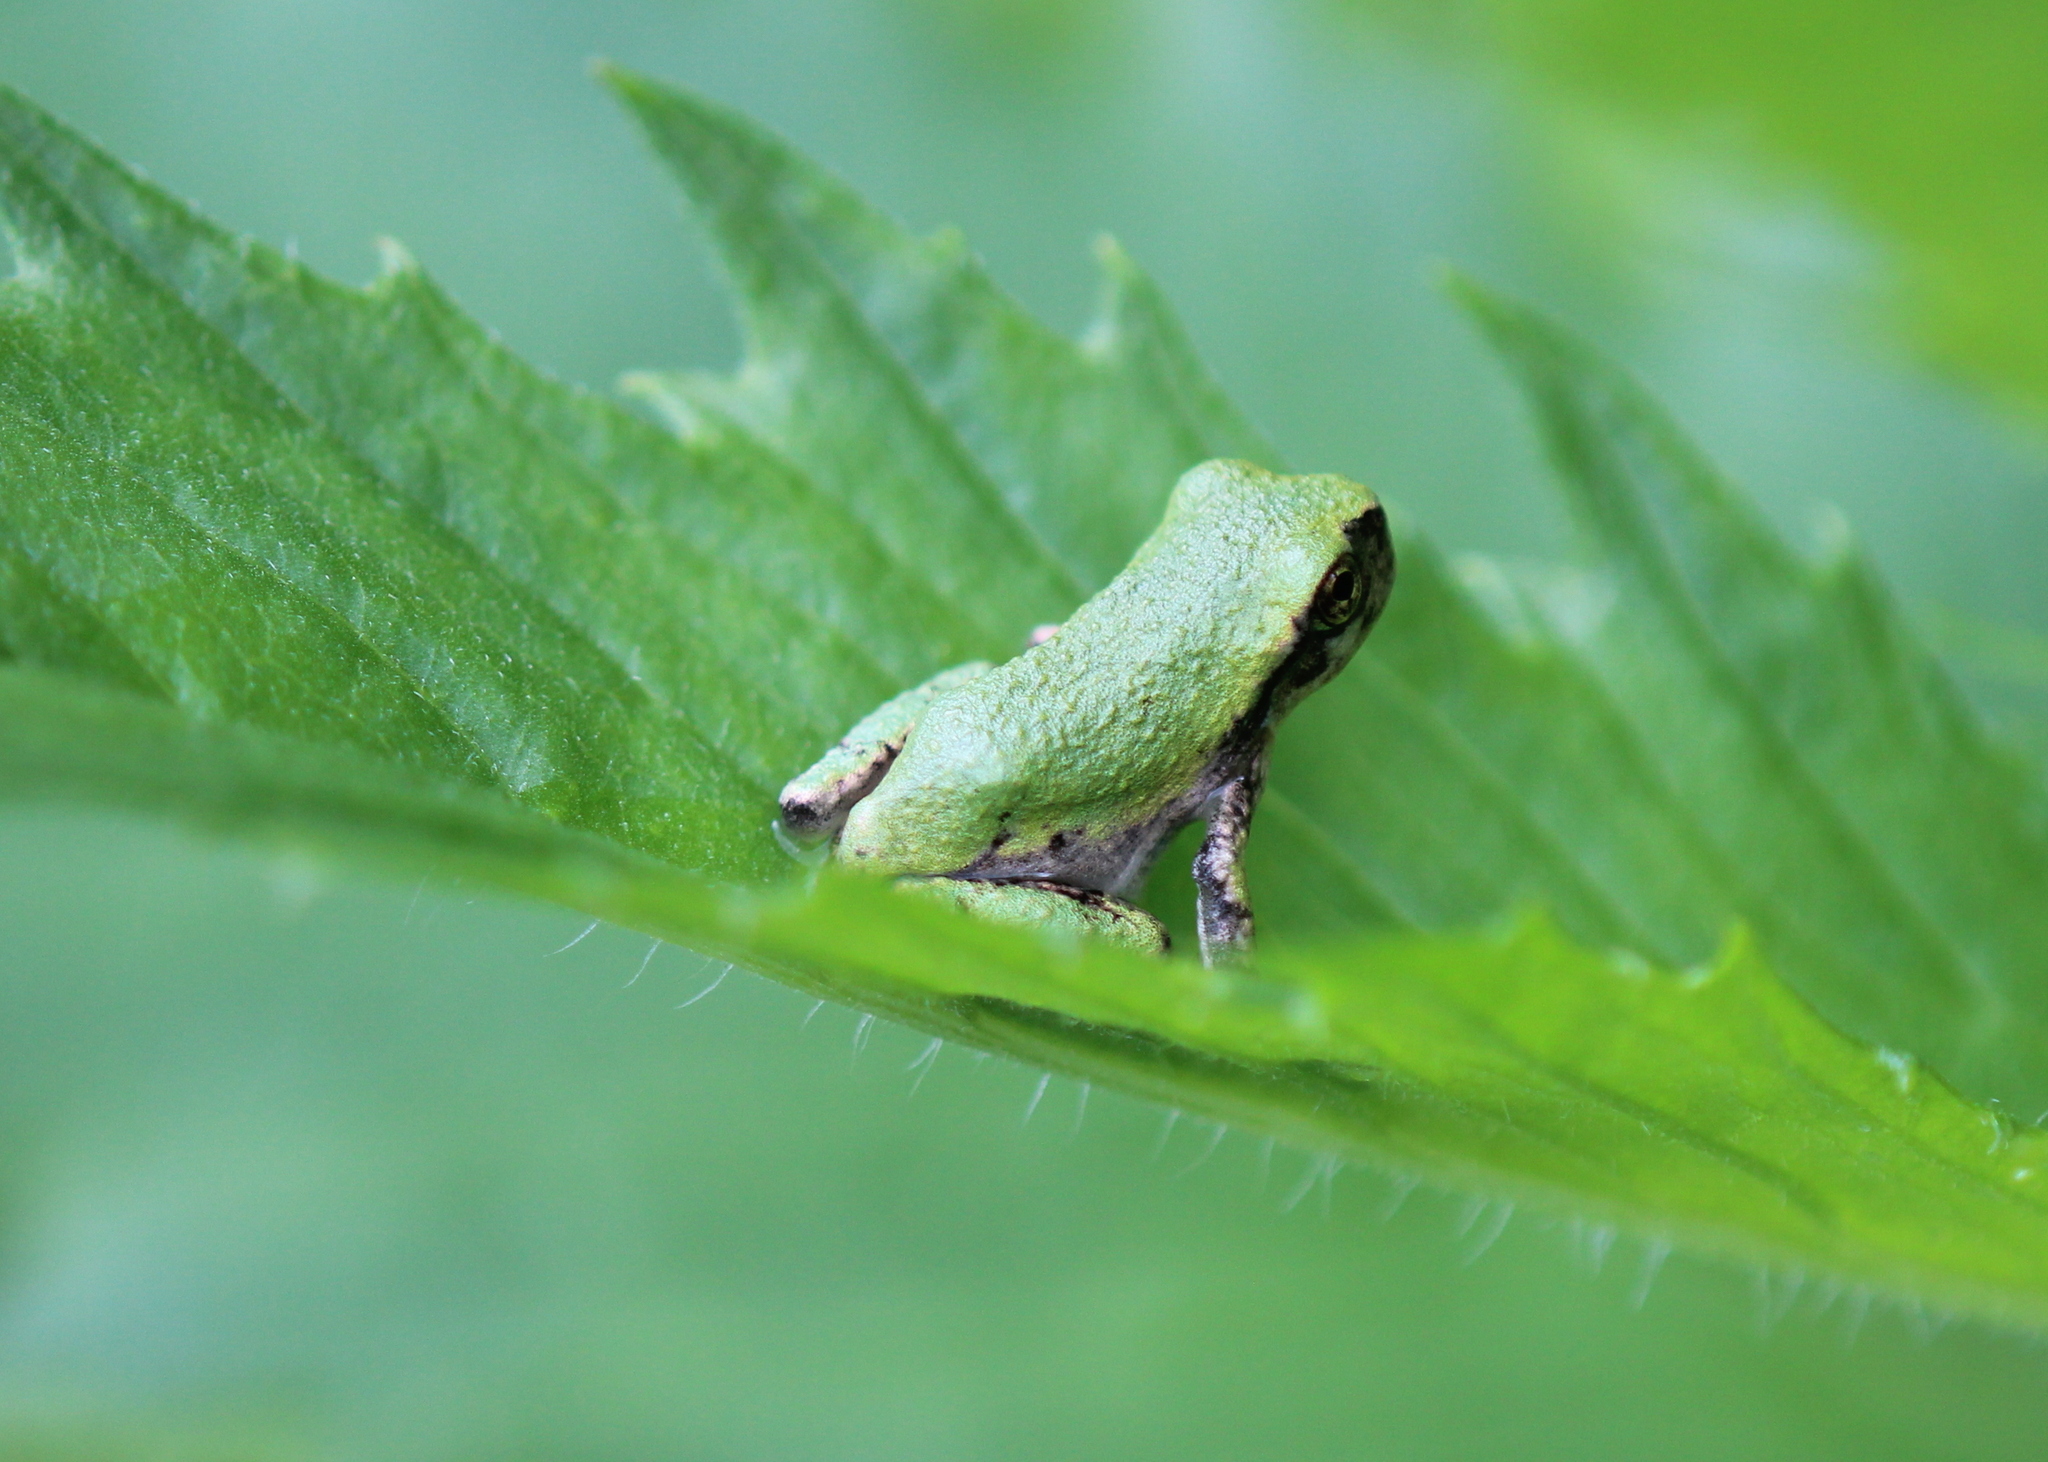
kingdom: Animalia
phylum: Chordata
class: Amphibia
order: Anura
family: Hylidae
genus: Dryophytes
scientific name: Dryophytes versicolor
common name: Gray treefrog
